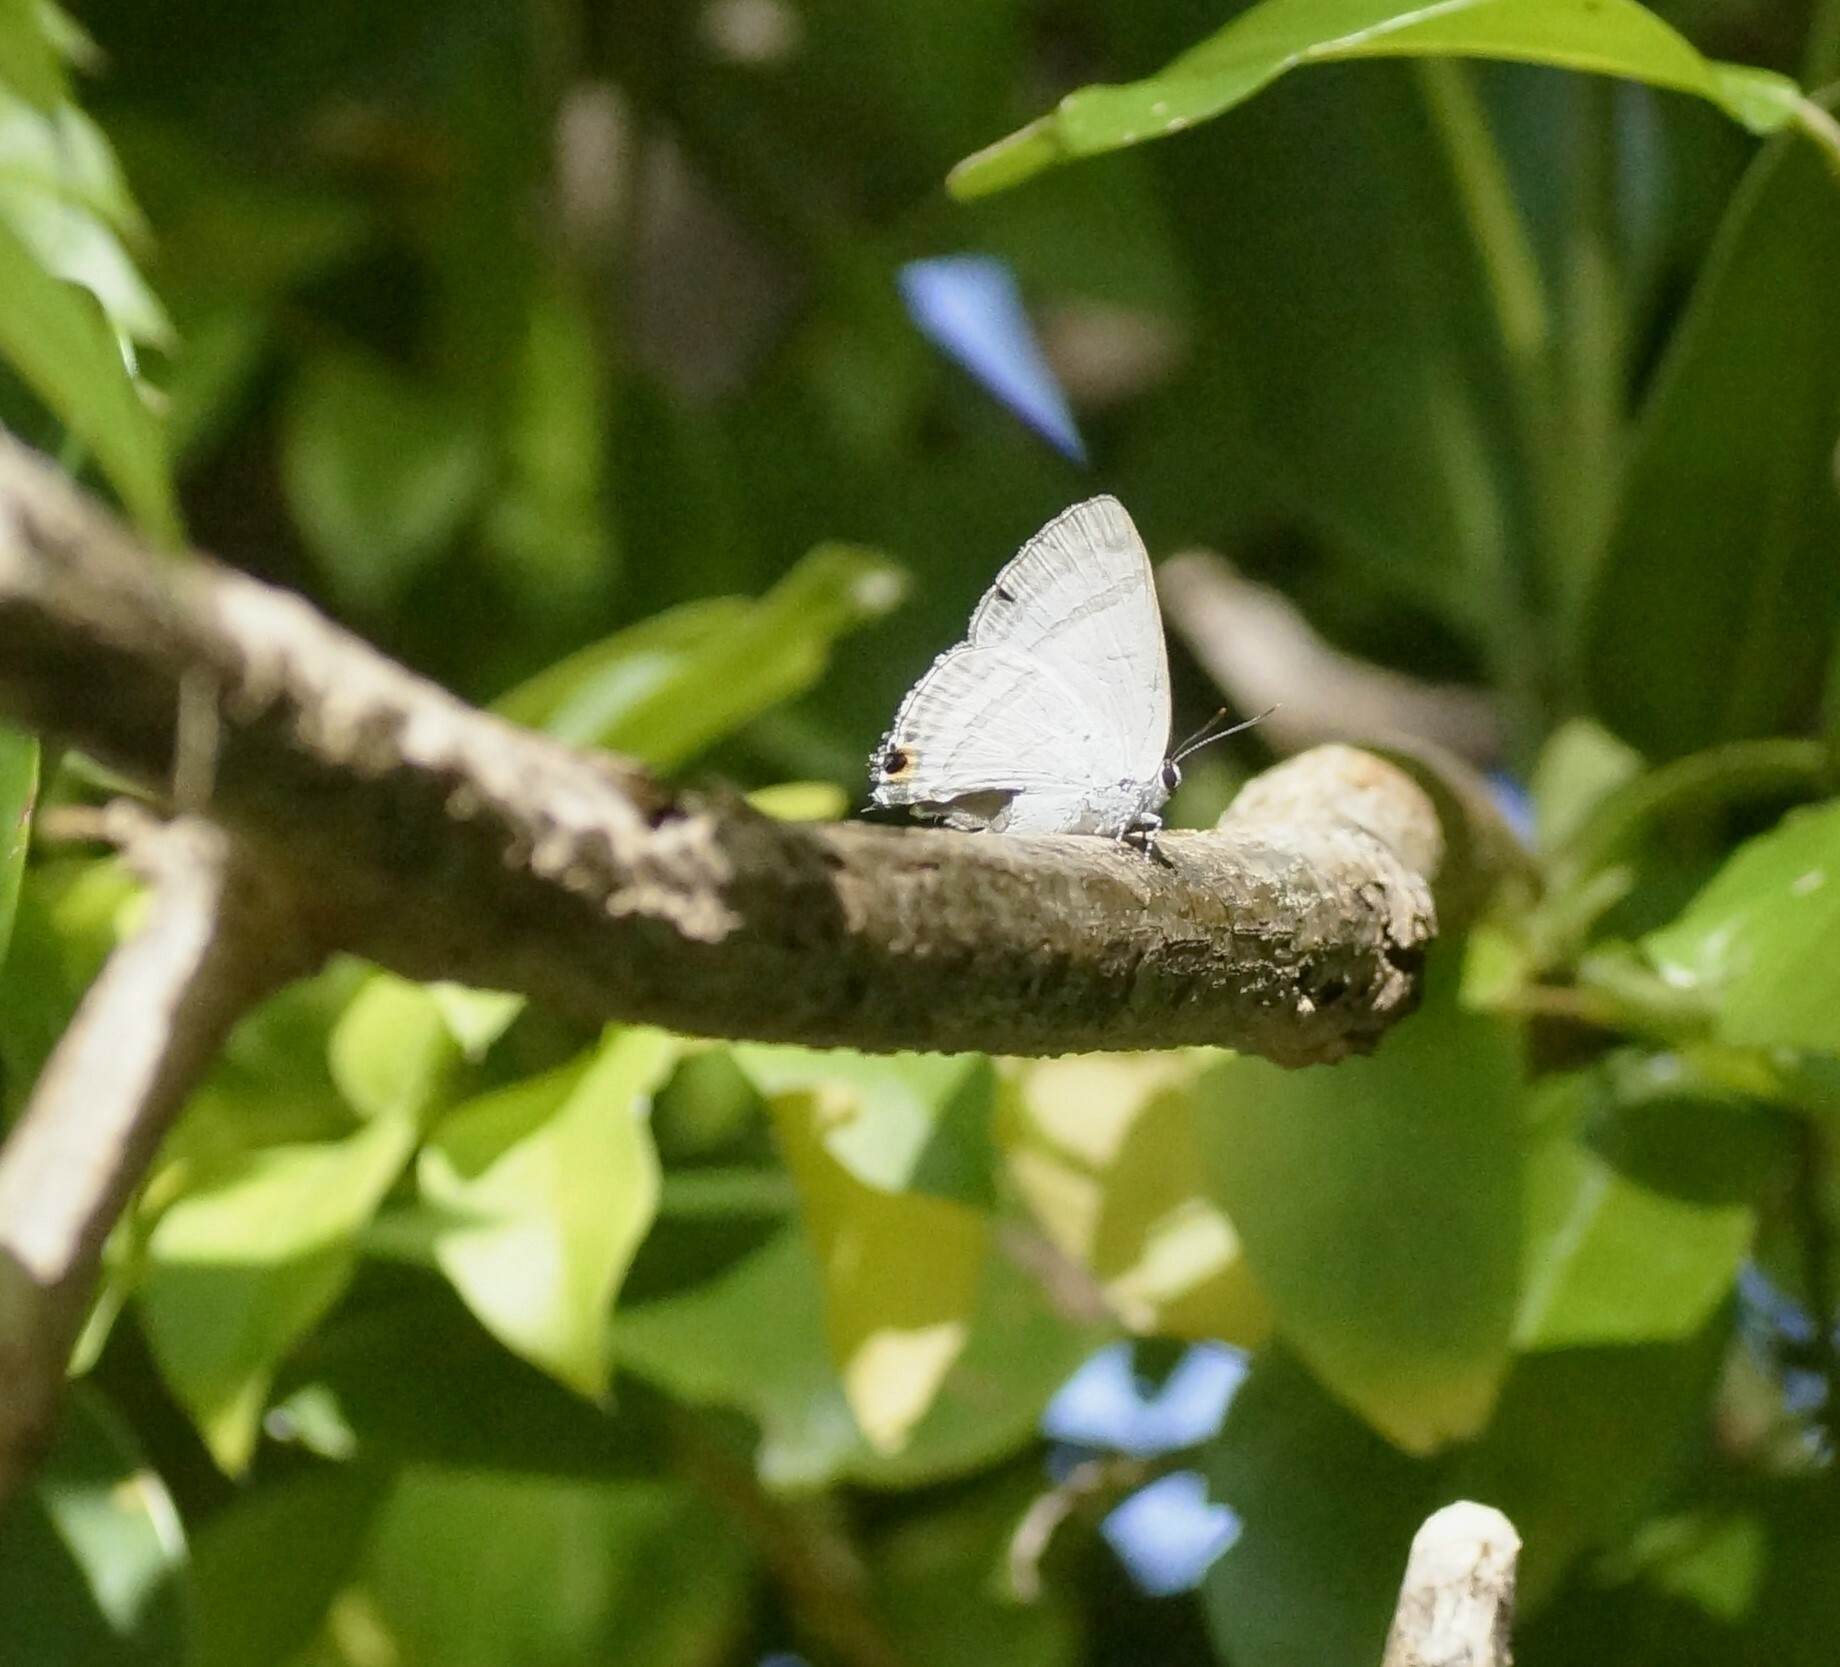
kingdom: Animalia
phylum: Arthropoda
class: Insecta
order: Lepidoptera
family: Lycaenidae
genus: Catochrysops
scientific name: Catochrysops panormus
